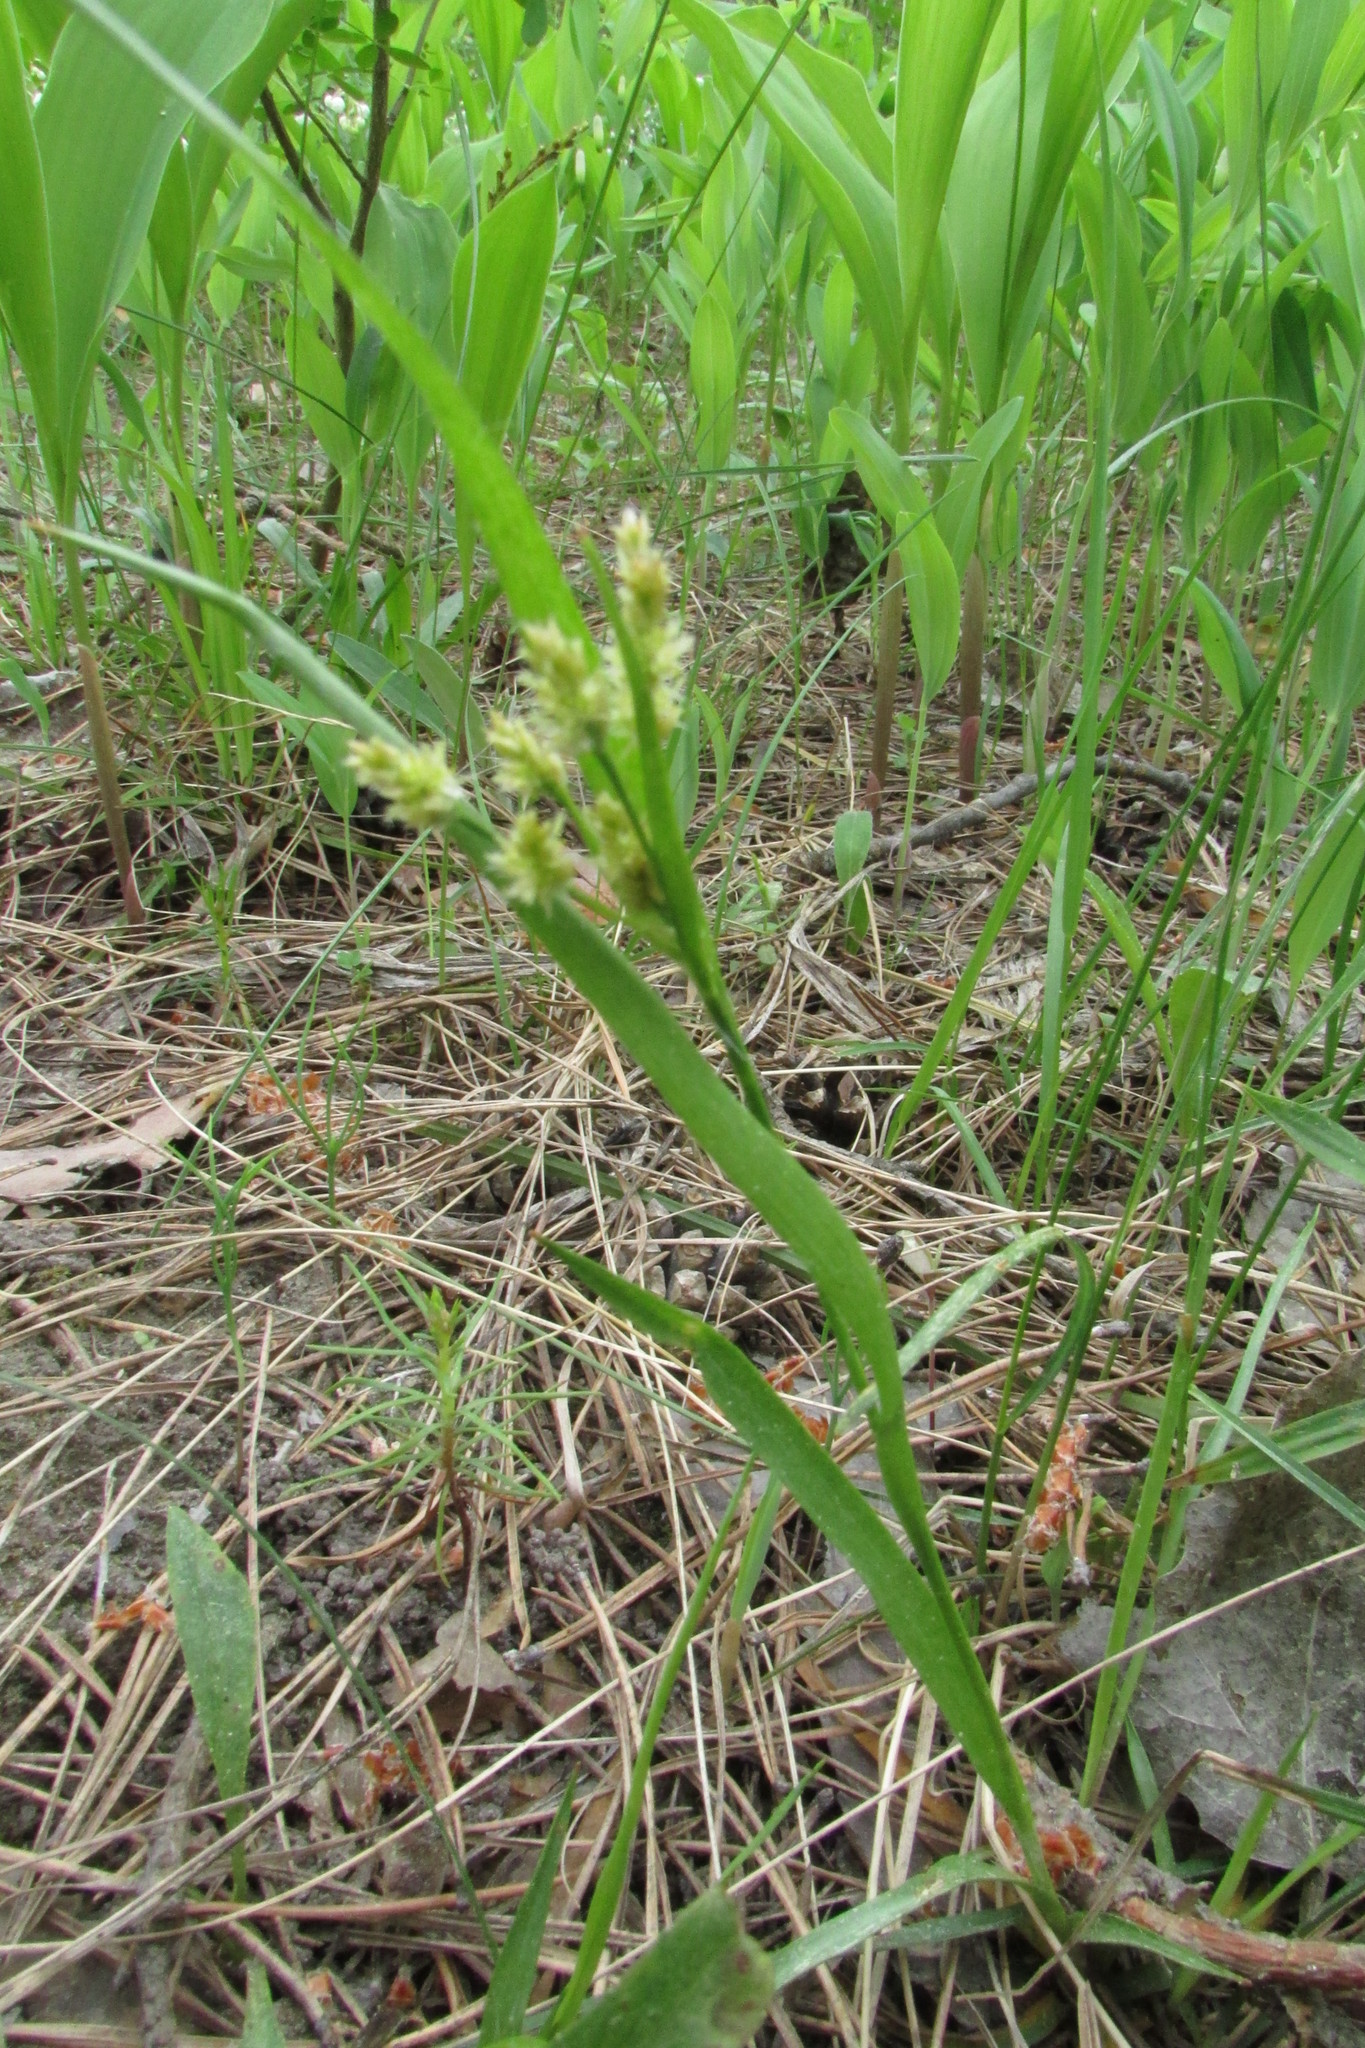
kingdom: Plantae
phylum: Tracheophyta
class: Liliopsida
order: Poales
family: Juncaceae
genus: Luzula
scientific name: Luzula pallescens
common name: Fen wood-rush
